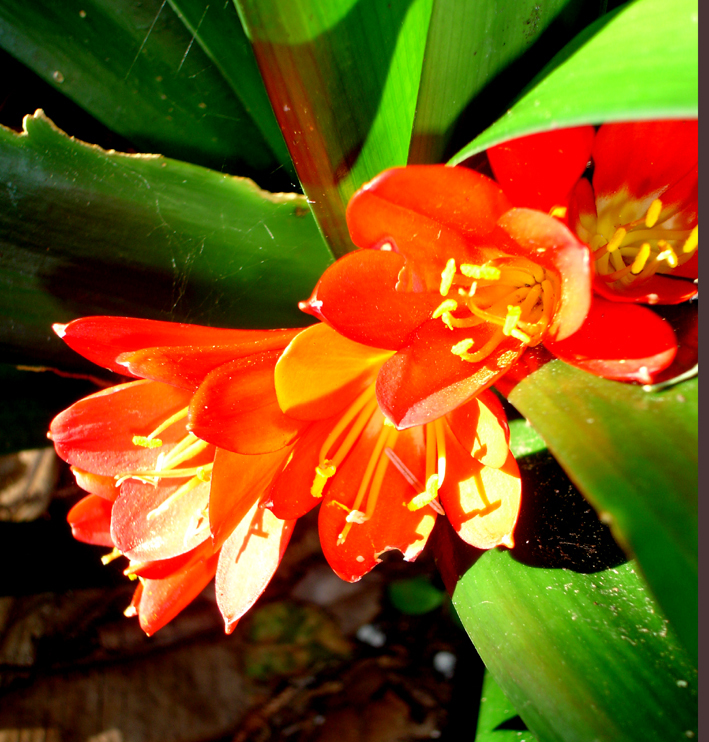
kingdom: Plantae
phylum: Tracheophyta
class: Liliopsida
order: Asparagales
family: Amaryllidaceae
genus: Clivia
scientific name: Clivia miniata
